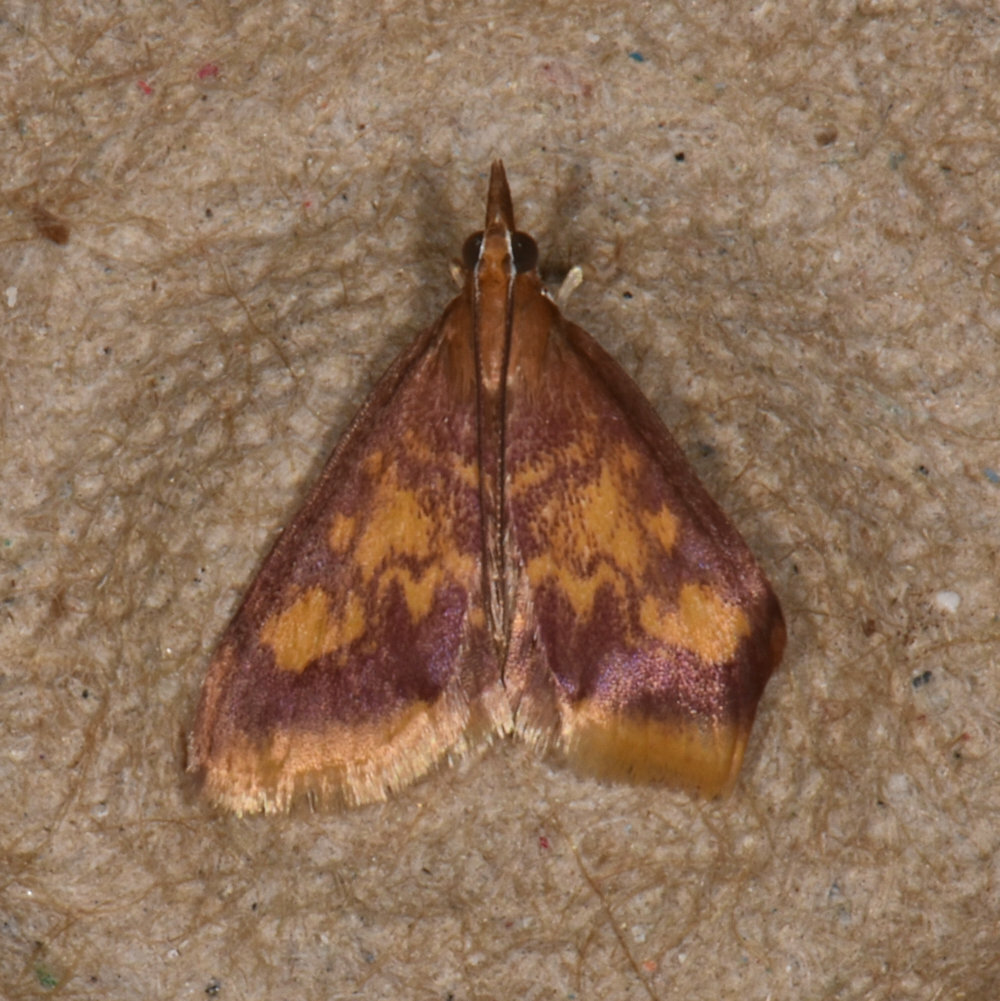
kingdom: Animalia
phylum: Arthropoda
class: Insecta
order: Lepidoptera
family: Crambidae
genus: Pyrausta
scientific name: Pyrausta acrionalis
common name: Mint-loving pyrausta moth
